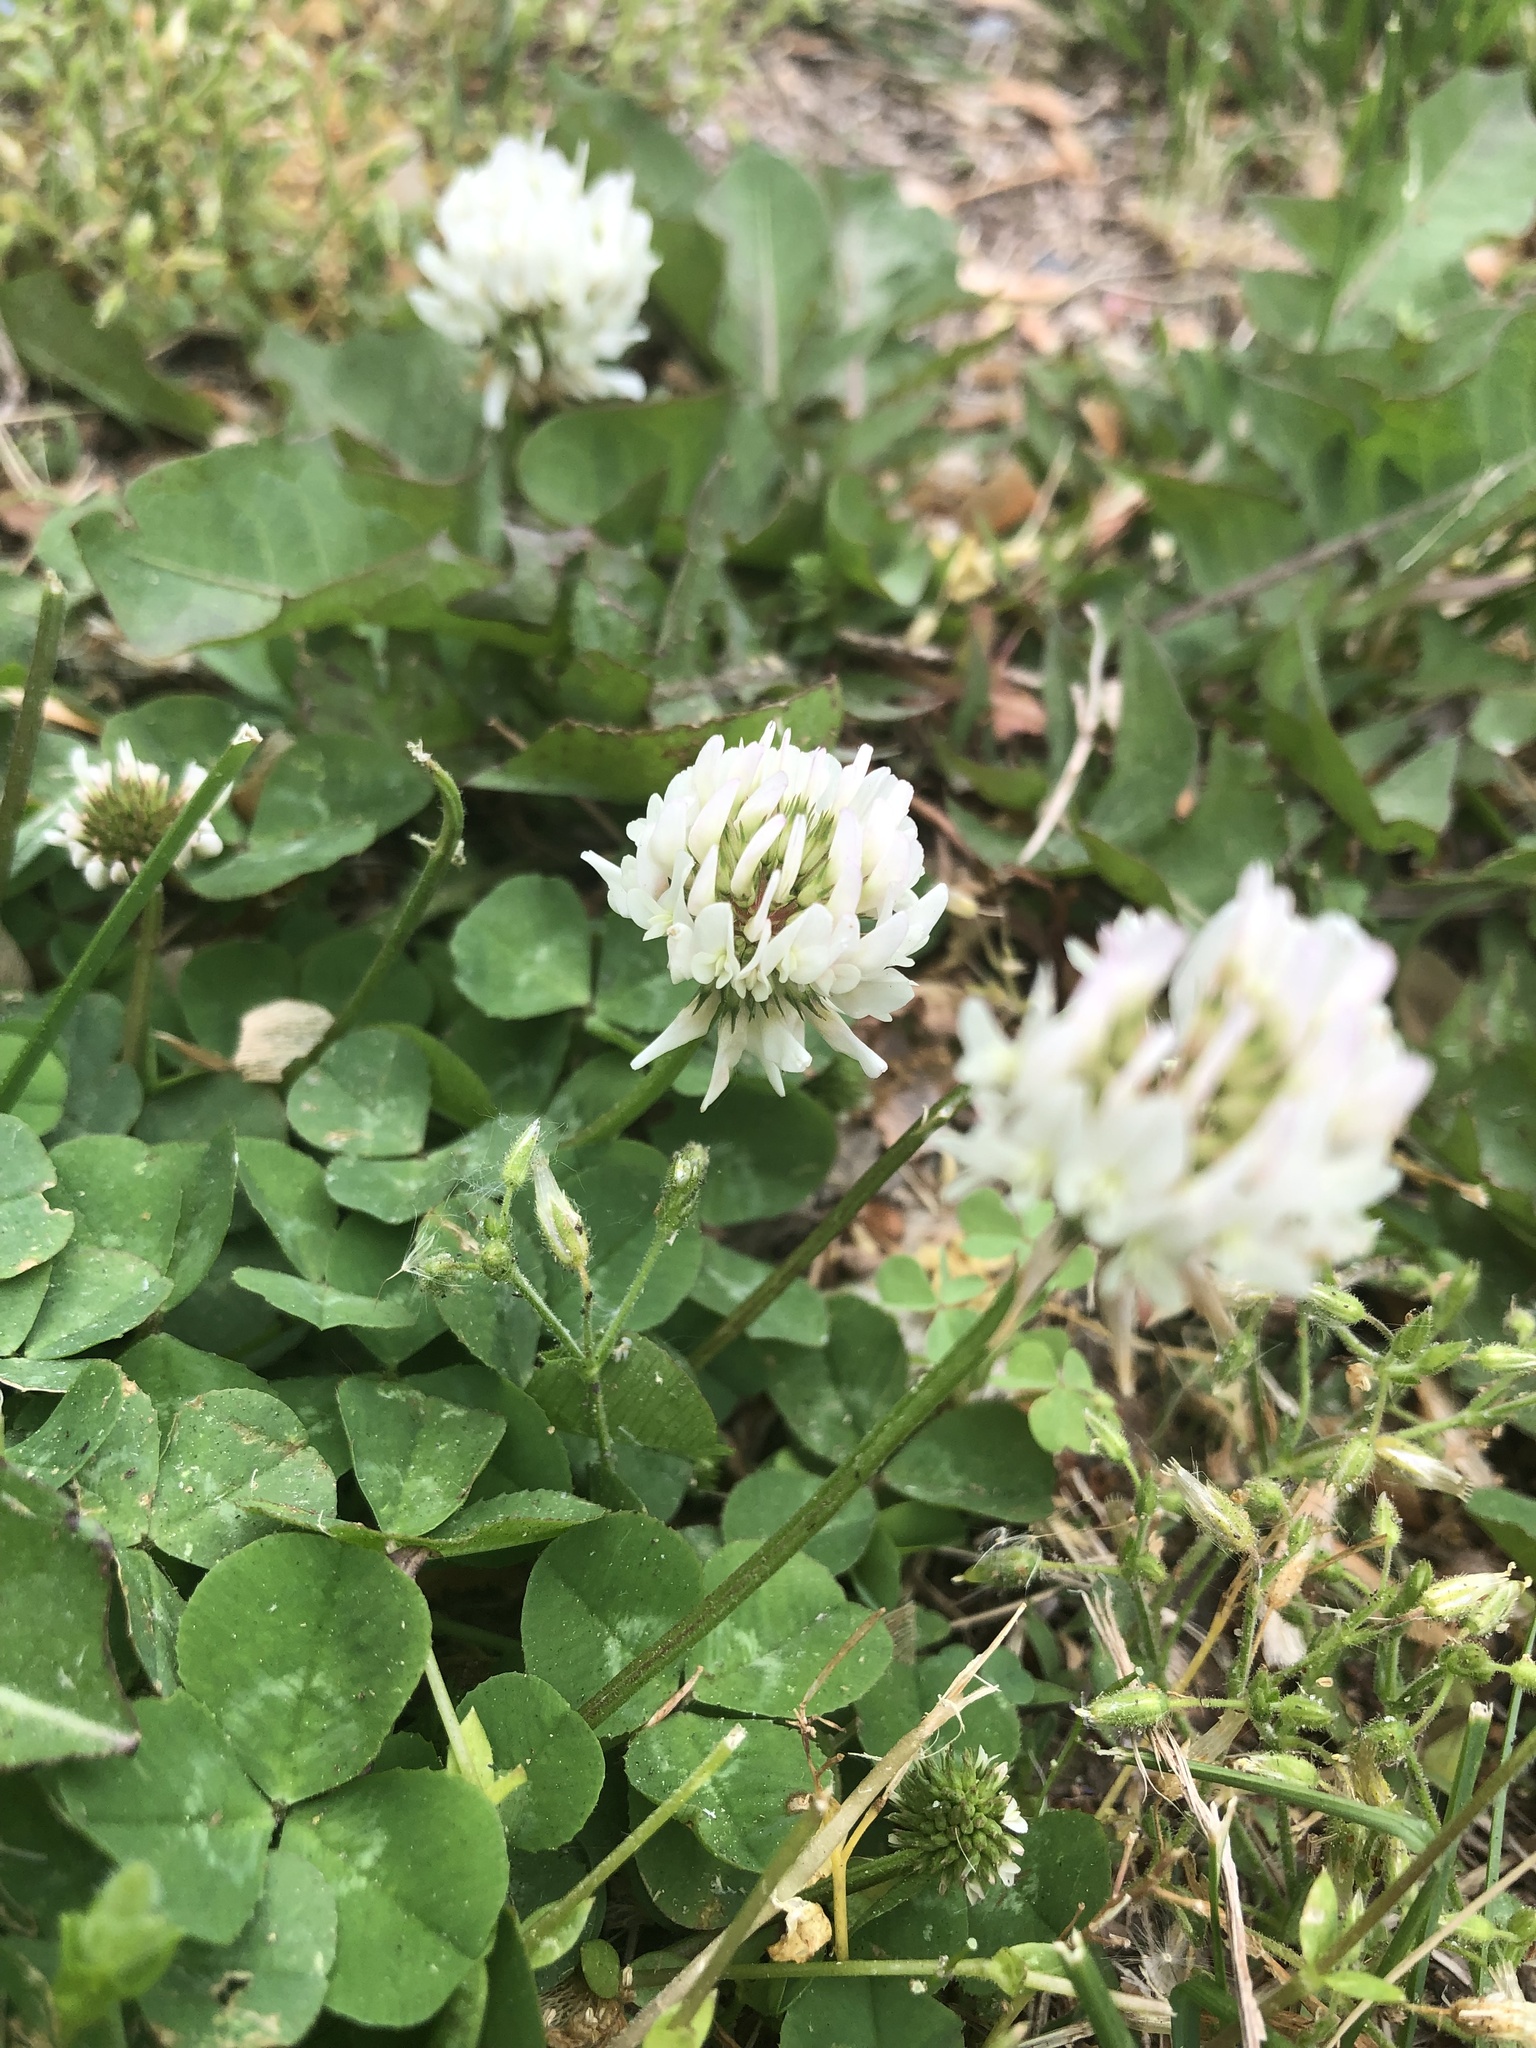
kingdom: Plantae
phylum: Tracheophyta
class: Magnoliopsida
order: Fabales
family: Fabaceae
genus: Trifolium
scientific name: Trifolium repens
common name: White clover
